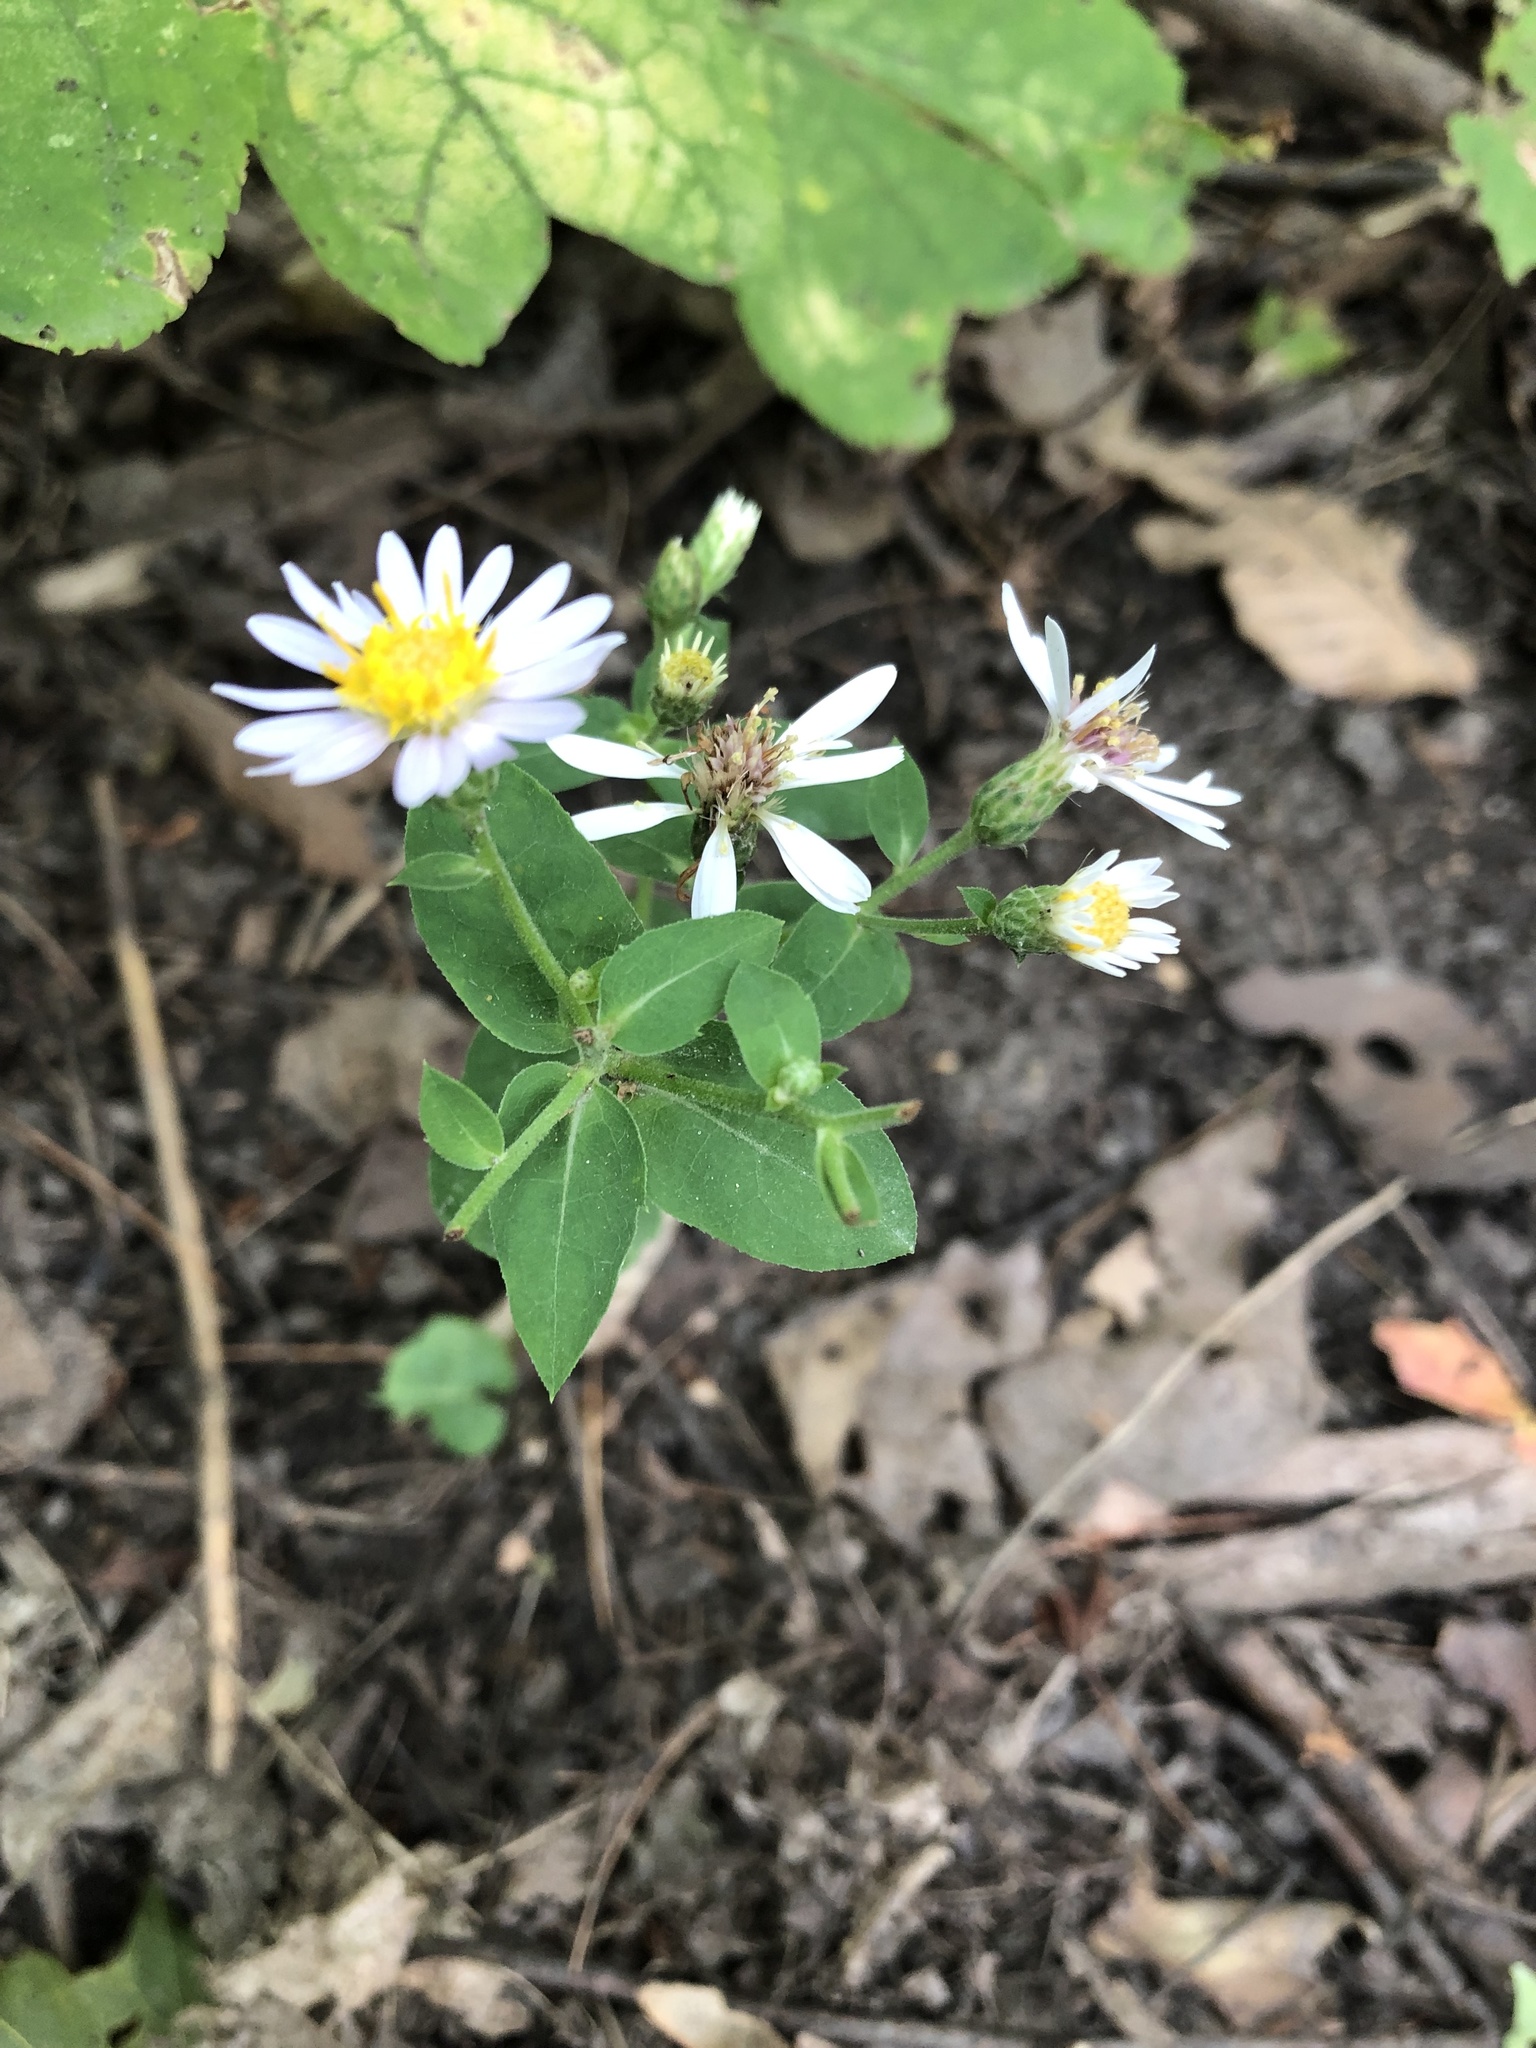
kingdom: Plantae
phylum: Tracheophyta
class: Magnoliopsida
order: Asterales
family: Asteraceae
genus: Eurybia
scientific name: Eurybia macrophylla
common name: Big-leaved aster
